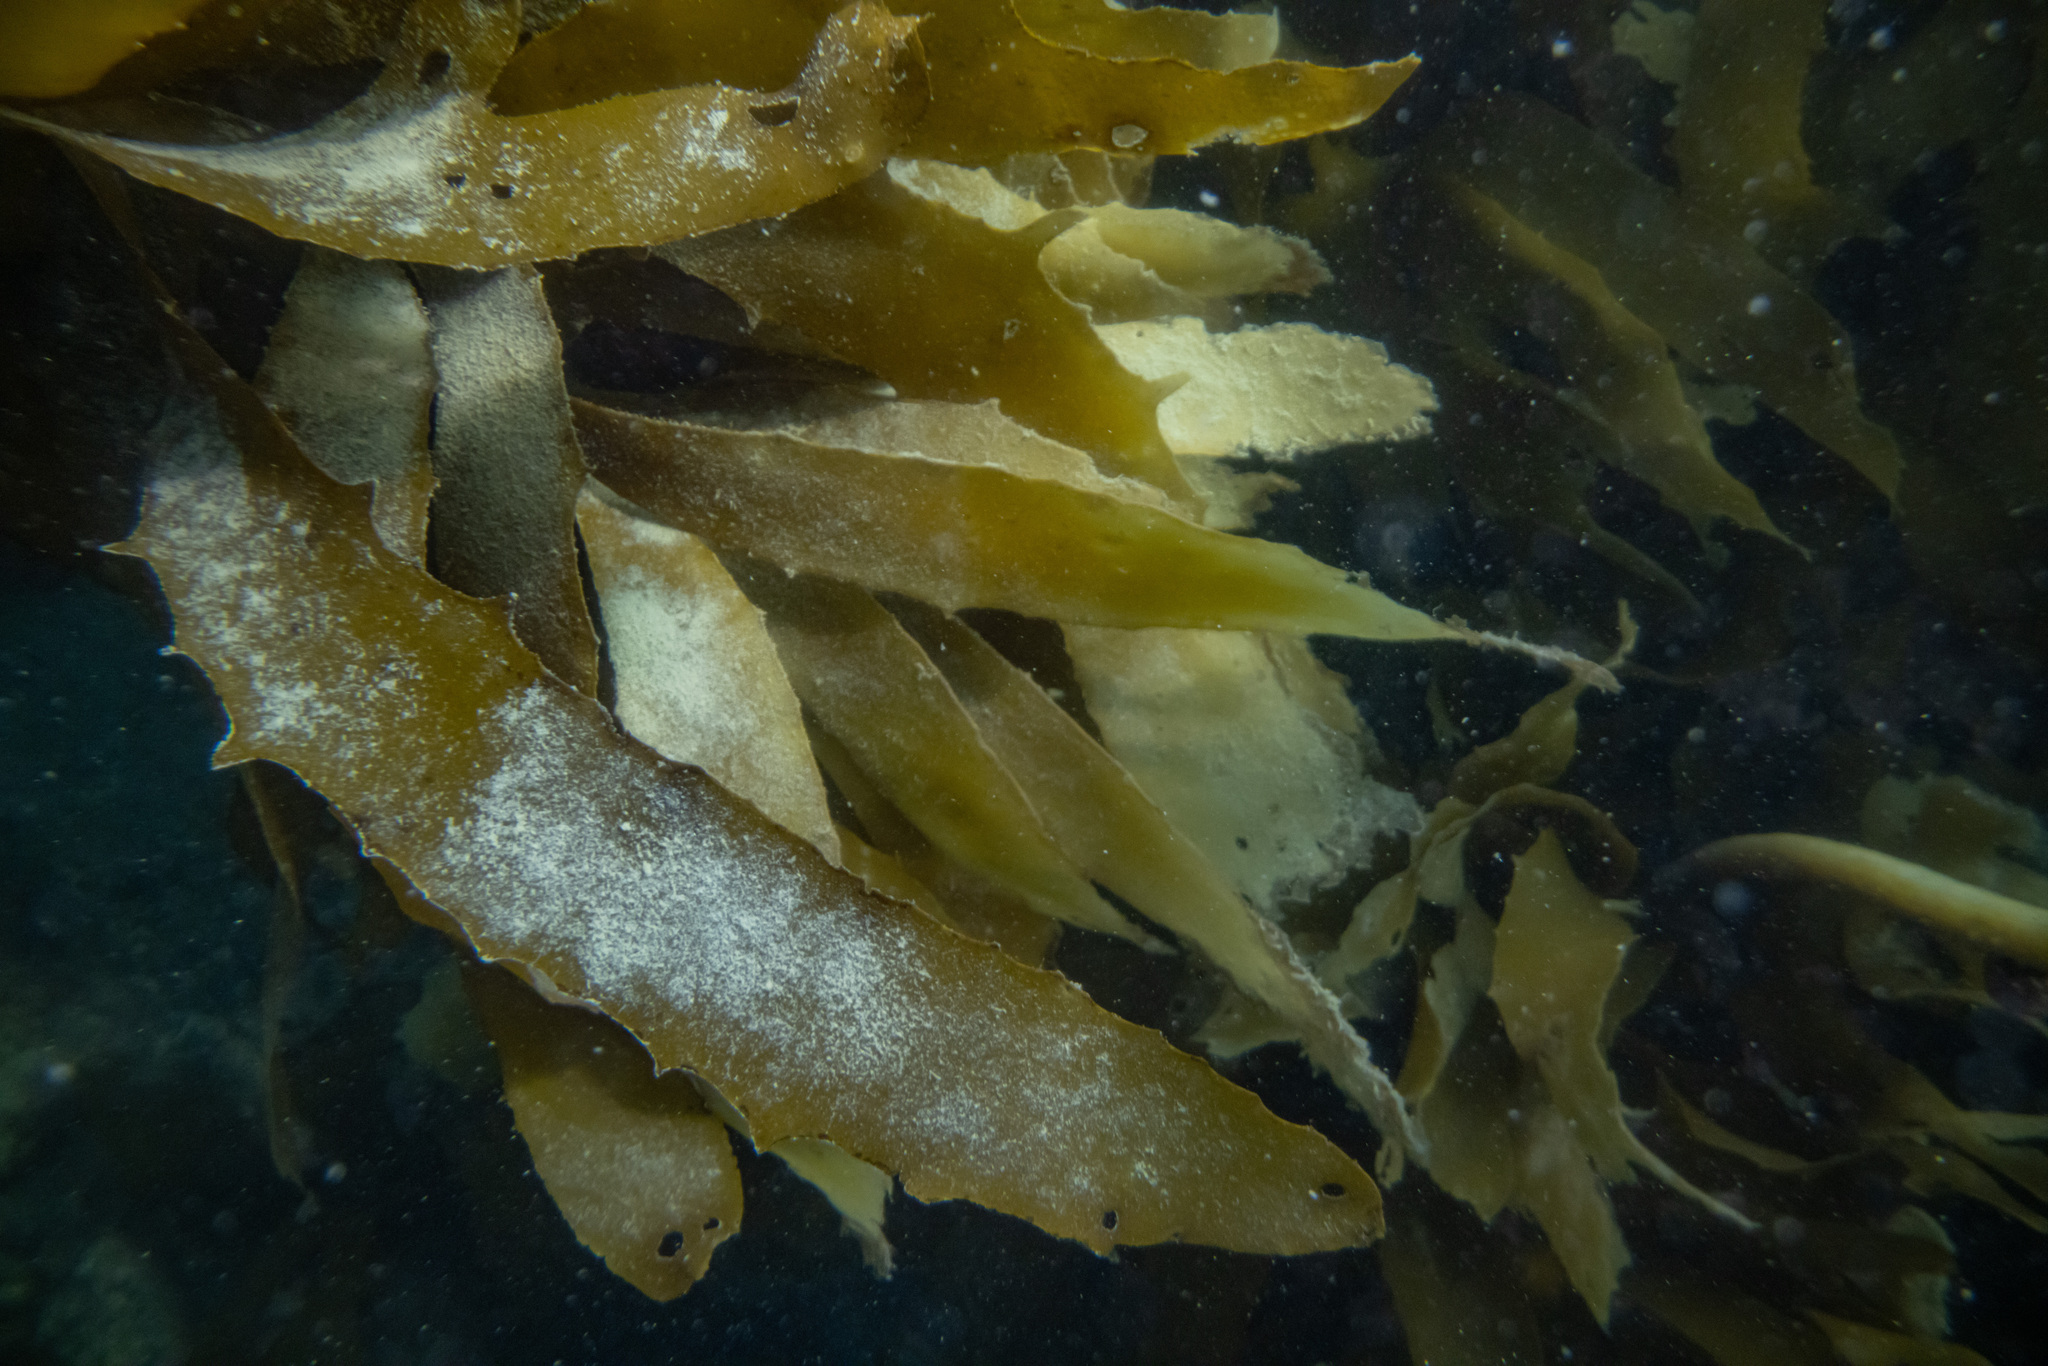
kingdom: Chromista
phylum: Ochrophyta
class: Phaeophyceae
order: Laminariales
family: Lessoniaceae
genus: Ecklonia
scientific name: Ecklonia radiata
